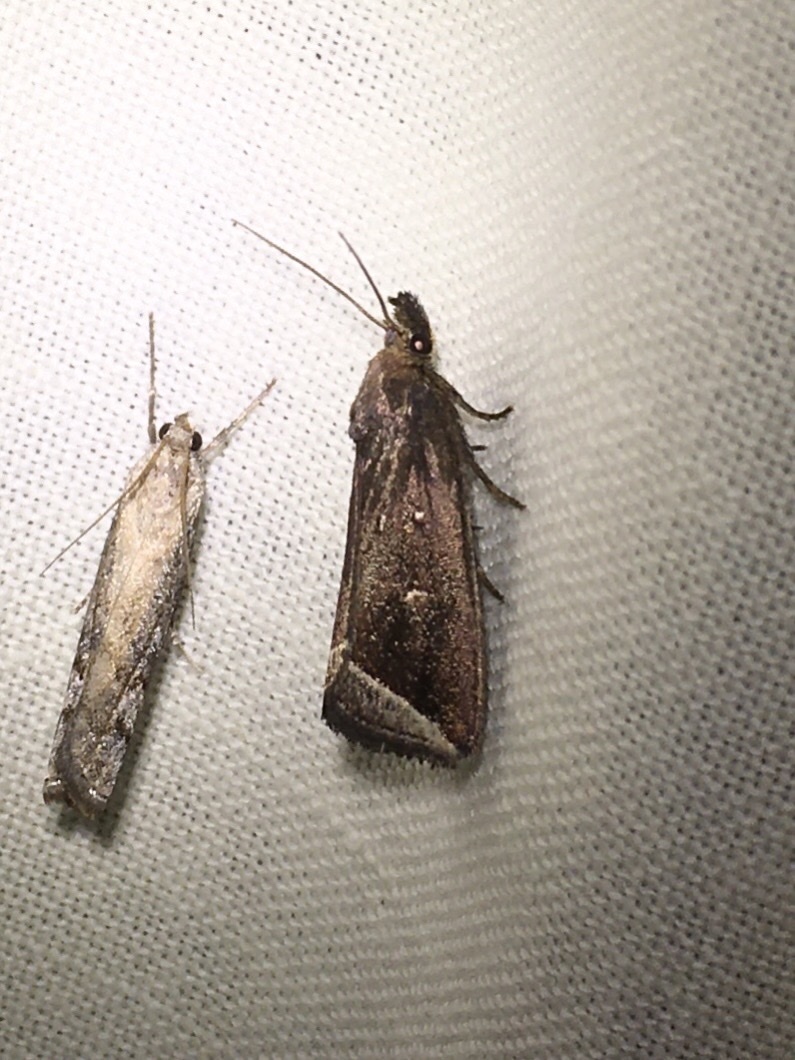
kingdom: Animalia
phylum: Arthropoda
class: Insecta
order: Lepidoptera
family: Erebidae
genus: Capis
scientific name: Capis curvata
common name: Curved halter moth
